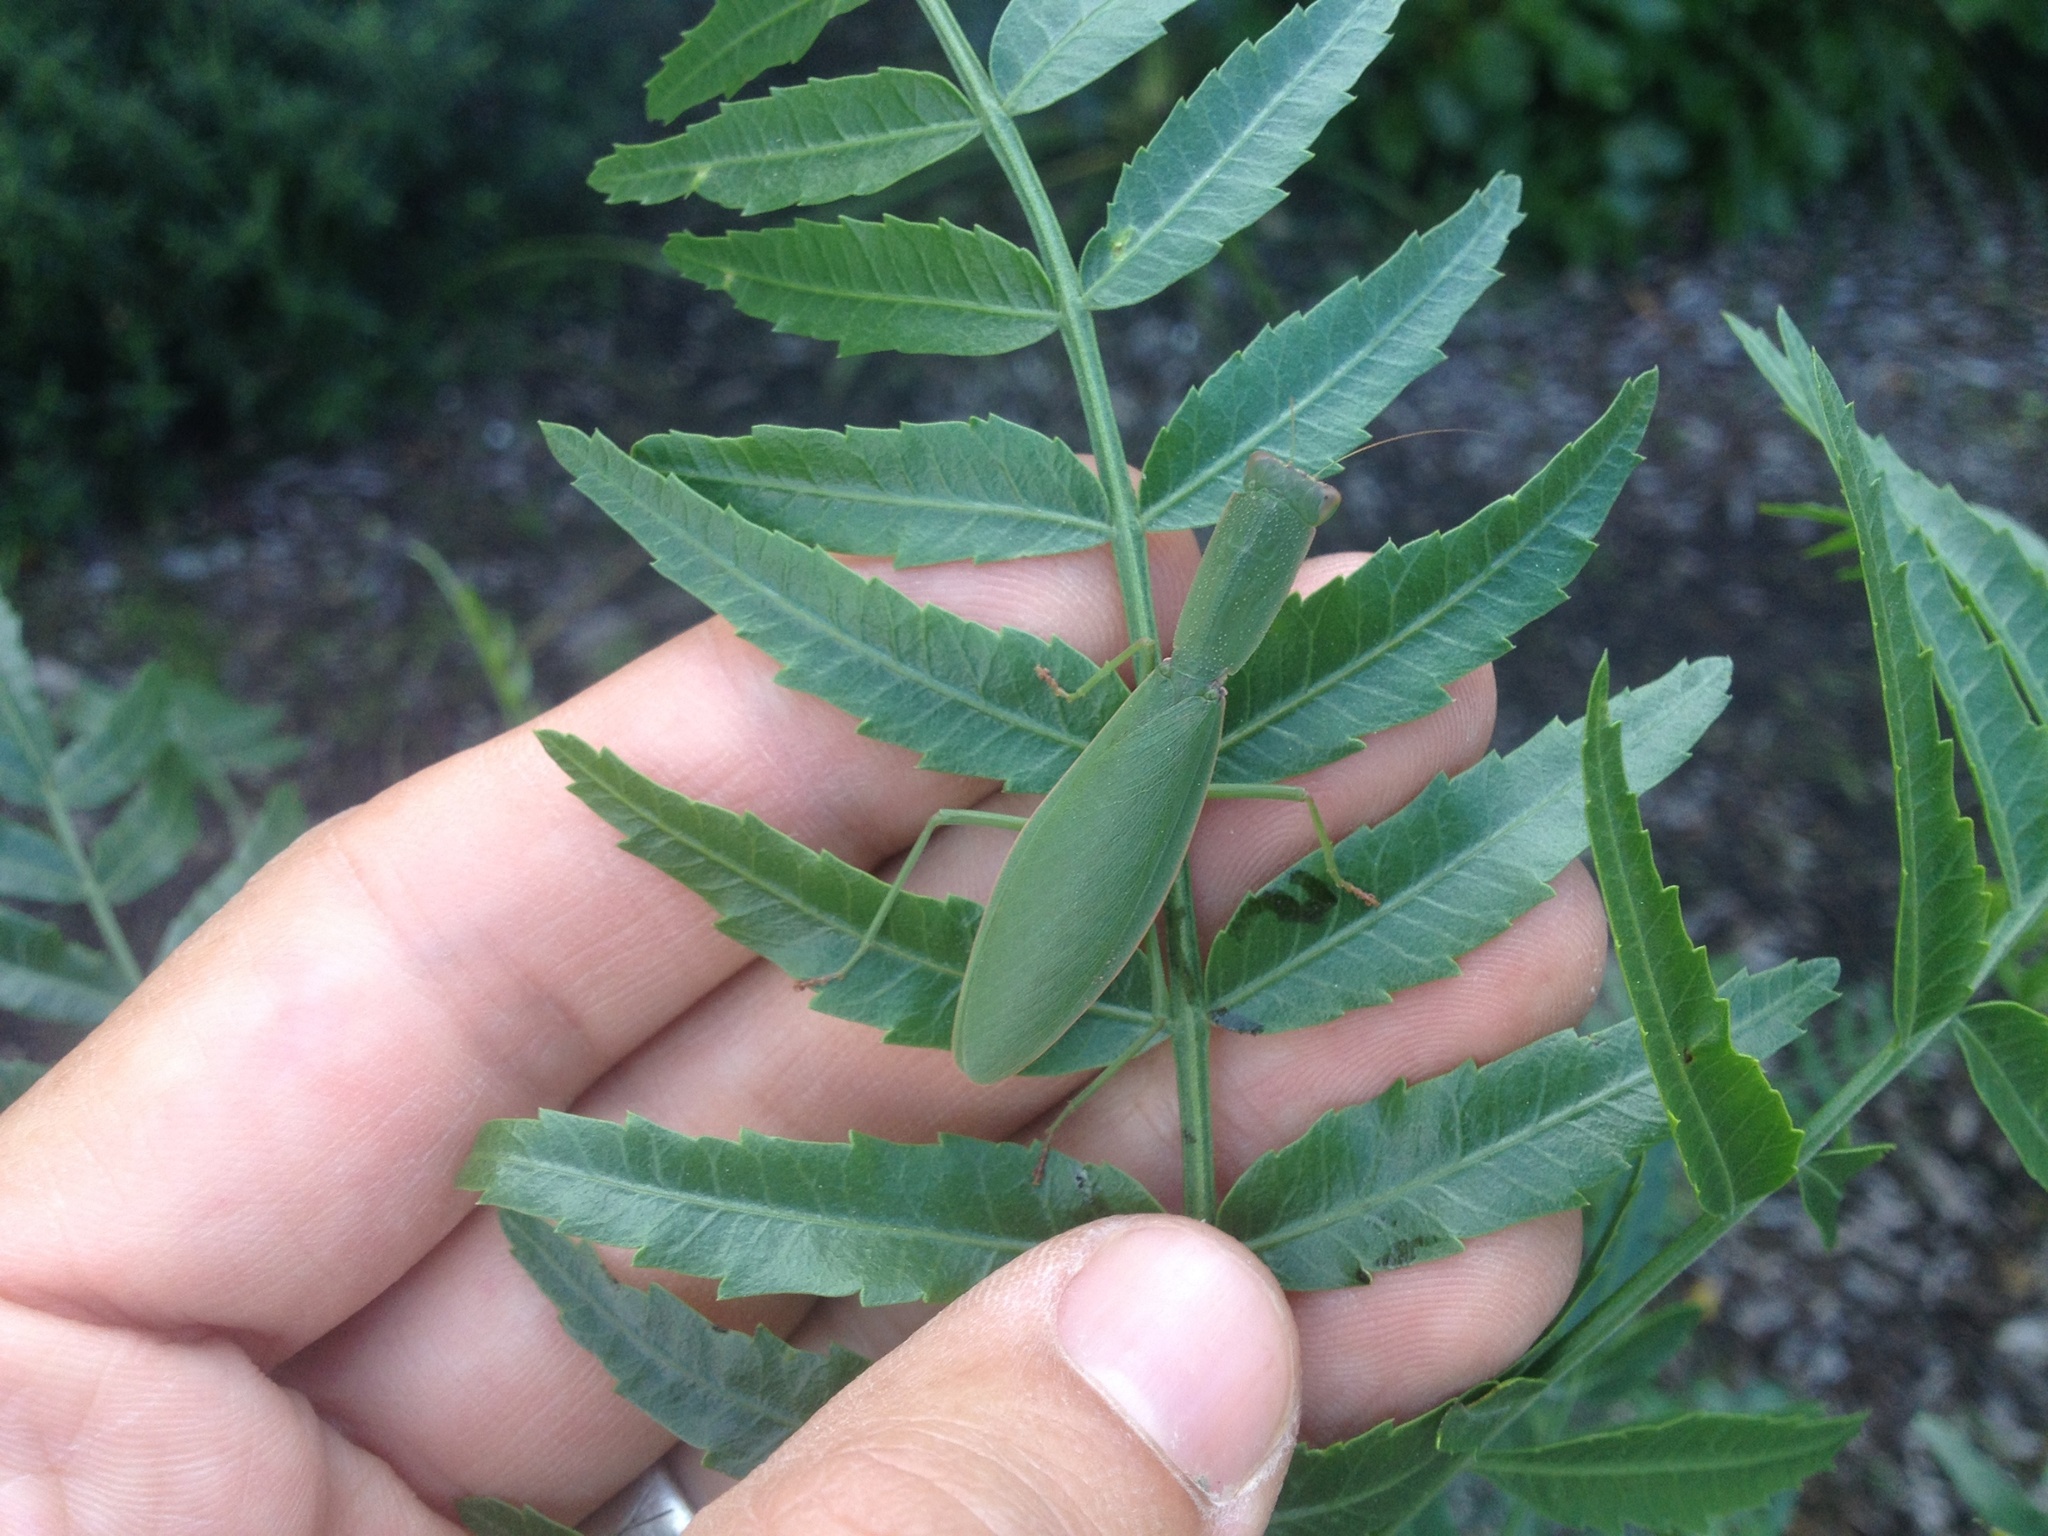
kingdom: Animalia
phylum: Arthropoda
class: Insecta
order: Mantodea
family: Mantidae
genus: Orthodera
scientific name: Orthodera novaezealandiae
